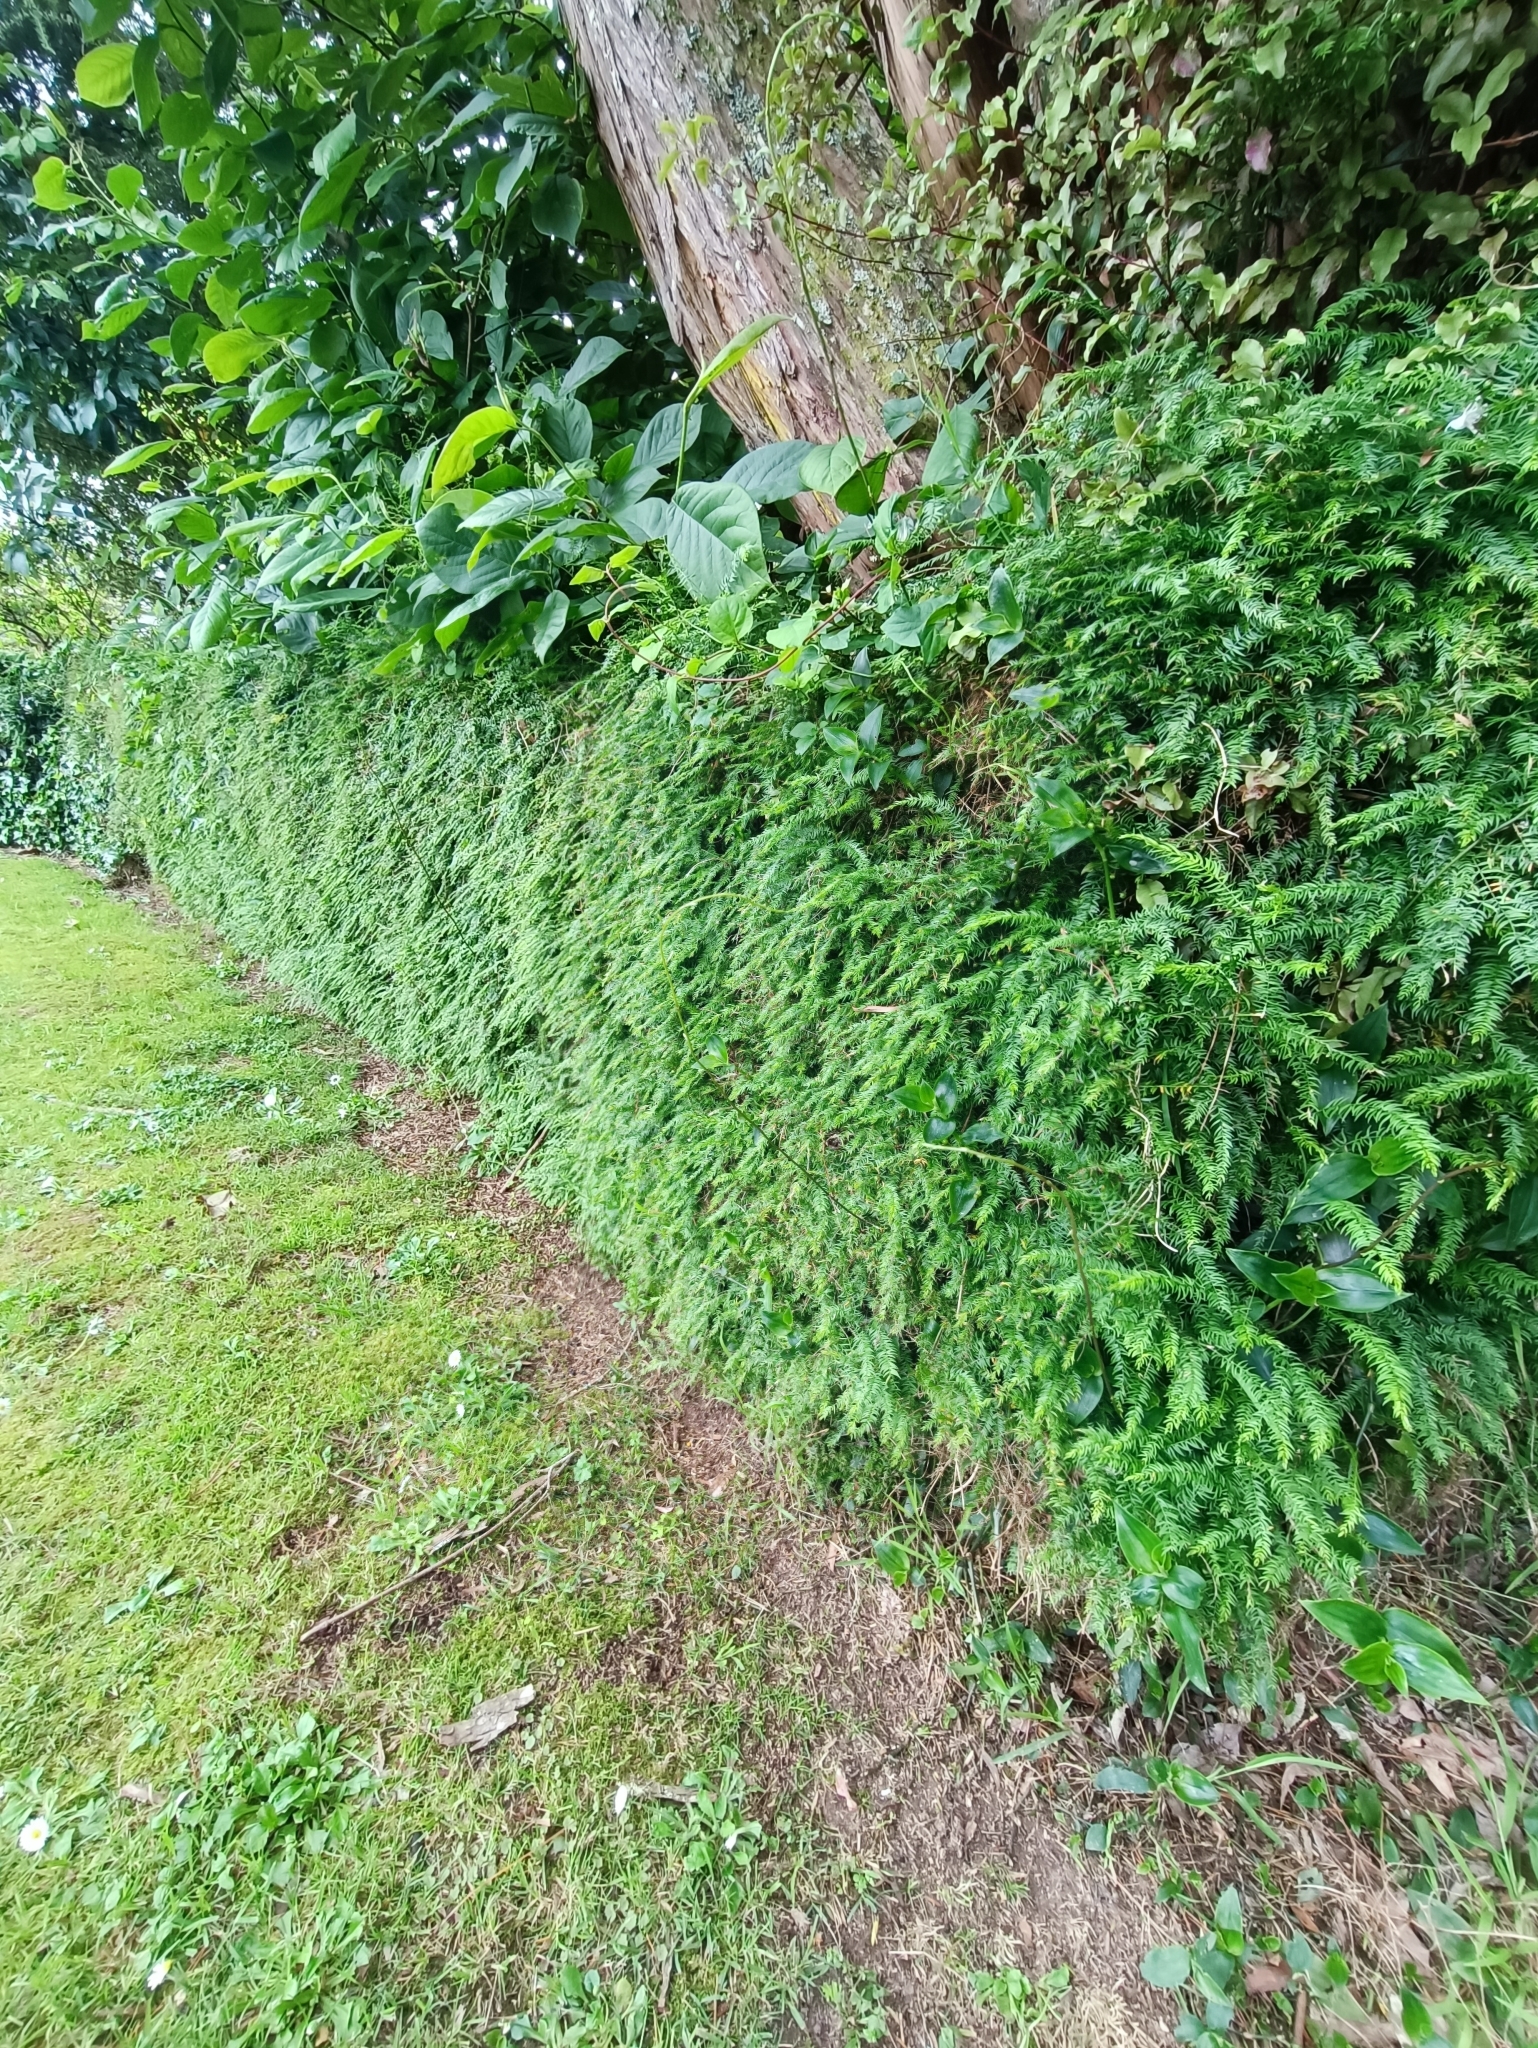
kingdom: Plantae
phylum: Tracheophyta
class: Liliopsida
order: Asparagales
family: Asparagaceae
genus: Asparagus
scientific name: Asparagus scandens
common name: Asparagus-fern
